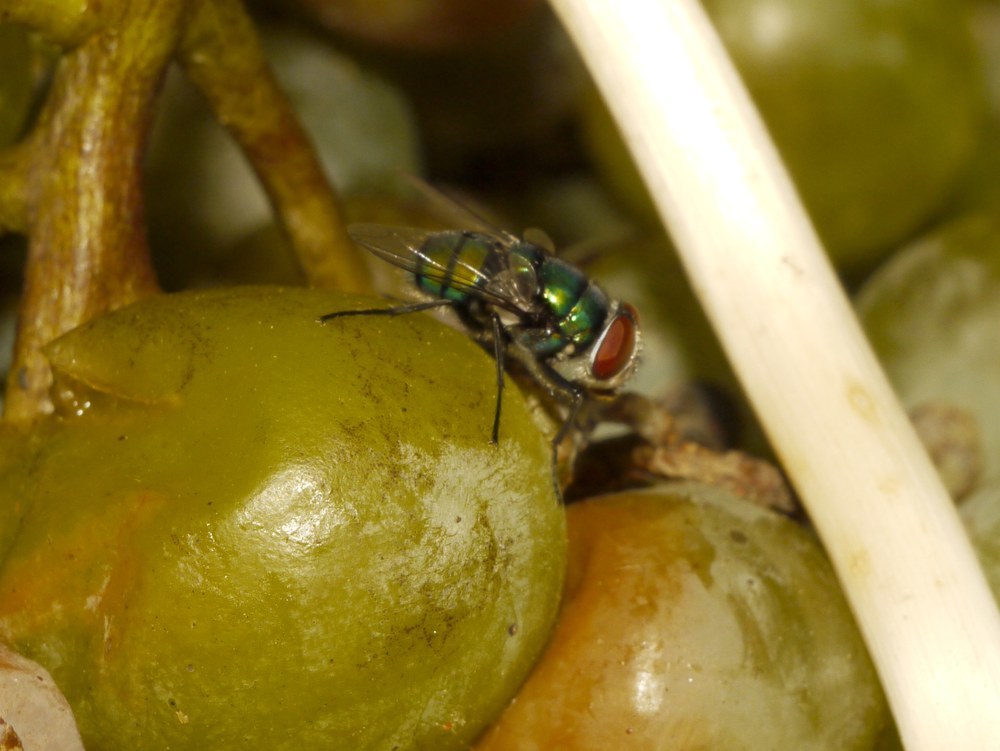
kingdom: Animalia
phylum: Arthropoda
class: Insecta
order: Diptera
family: Calliphoridae
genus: Chrysomya
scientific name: Chrysomya albiceps
